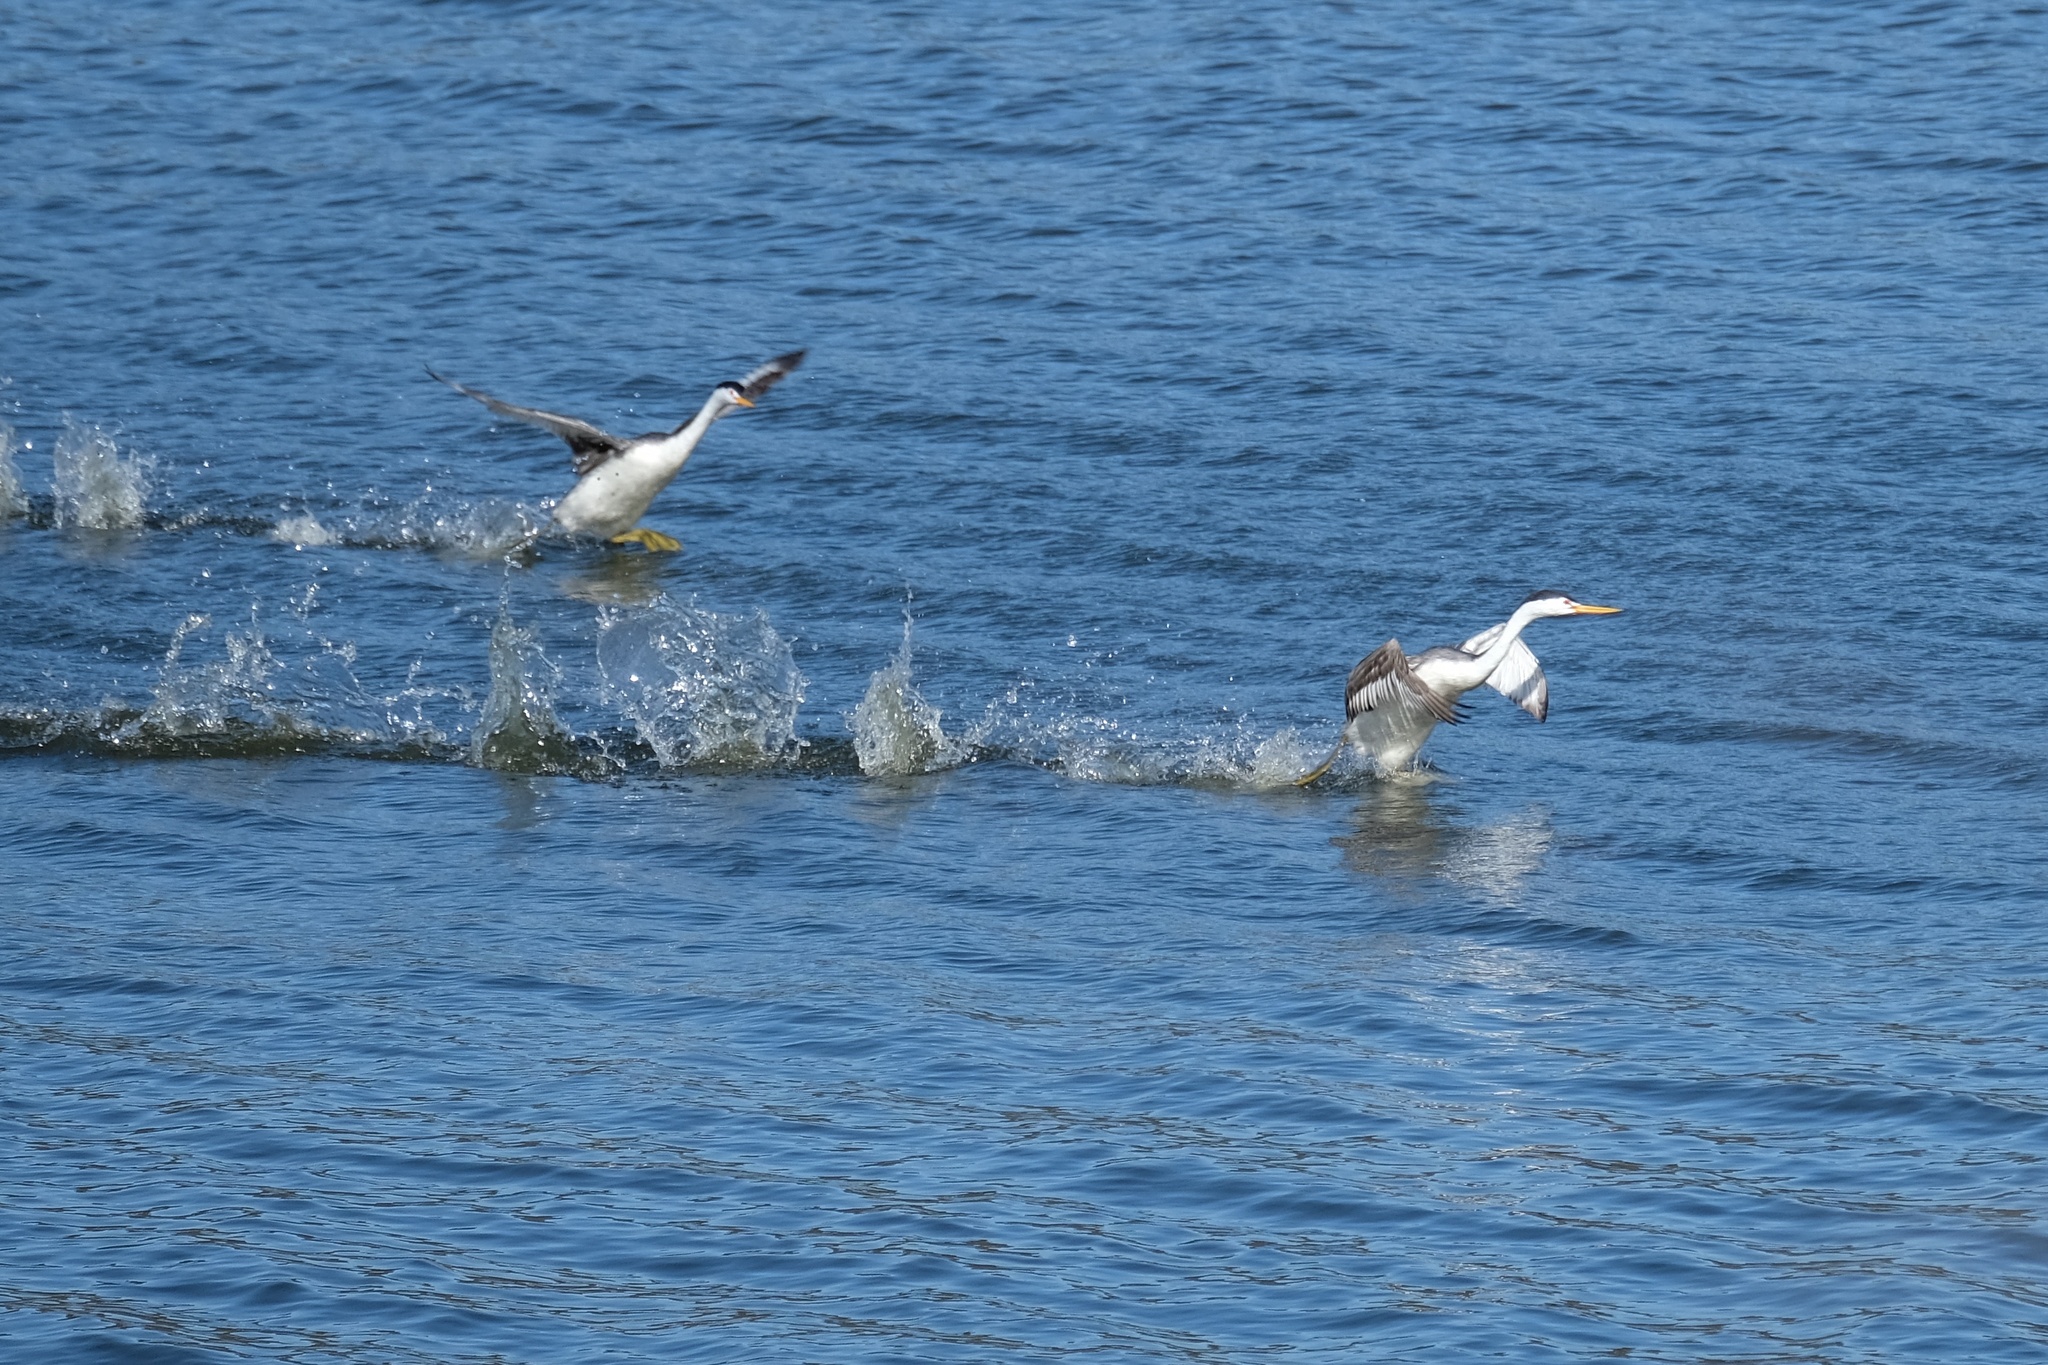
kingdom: Animalia
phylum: Chordata
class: Aves
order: Podicipediformes
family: Podicipedidae
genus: Aechmophorus
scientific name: Aechmophorus clarkii
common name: Clark's grebe
